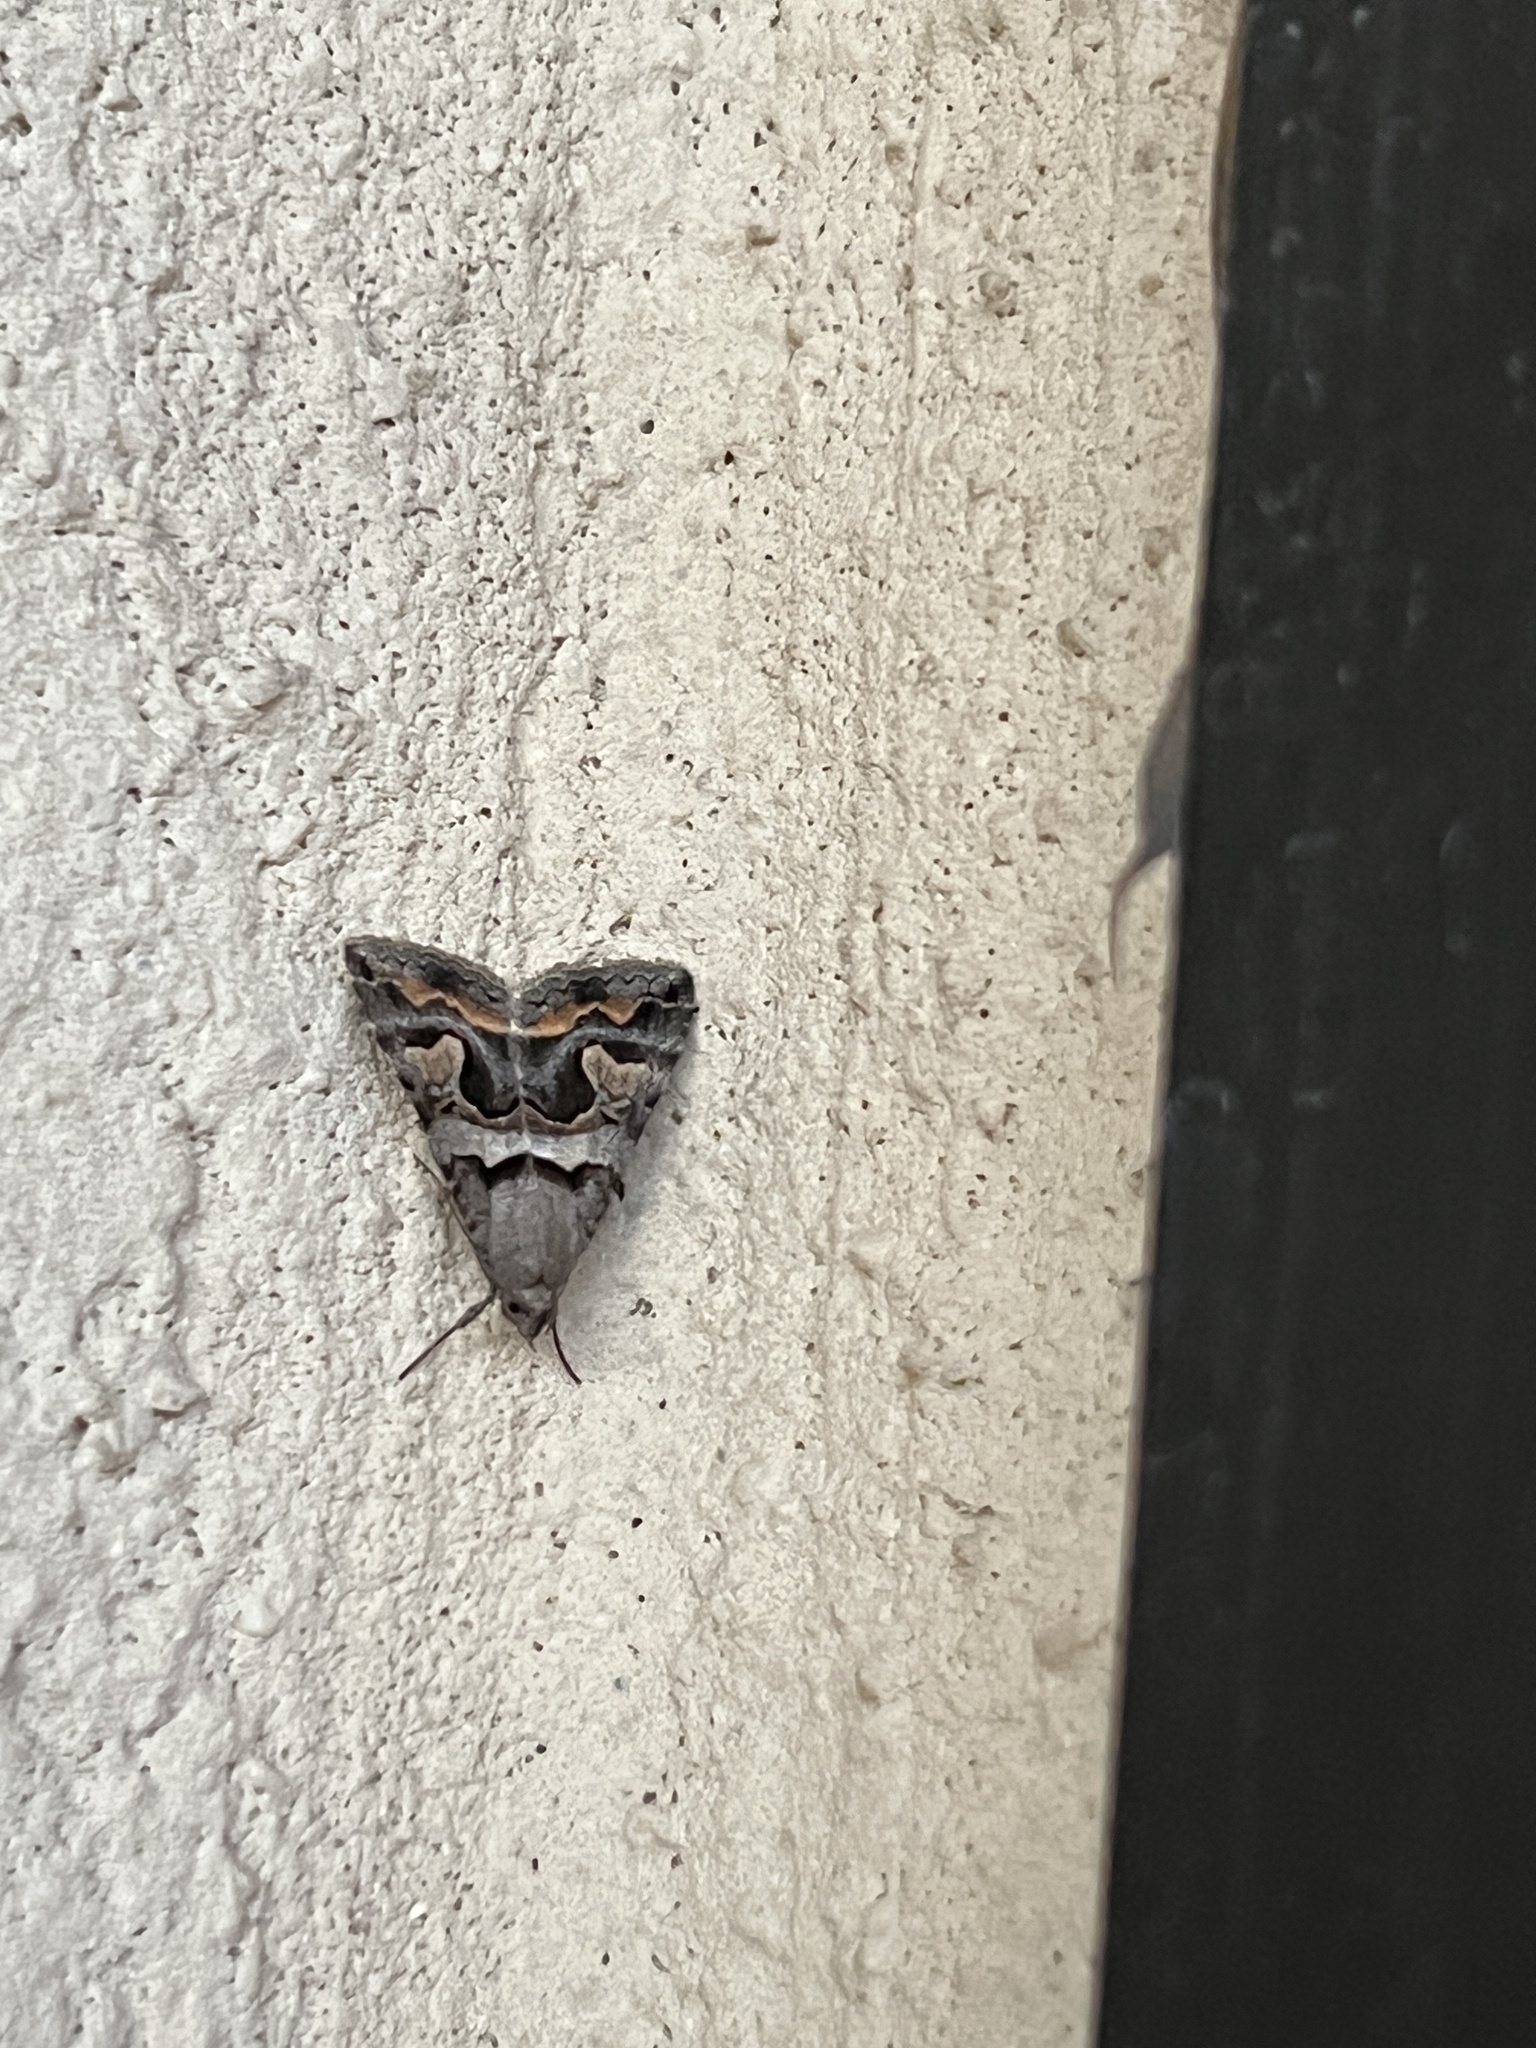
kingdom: Animalia
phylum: Arthropoda
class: Insecta
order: Lepidoptera
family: Erebidae
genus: Bulia
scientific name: Bulia deducta
